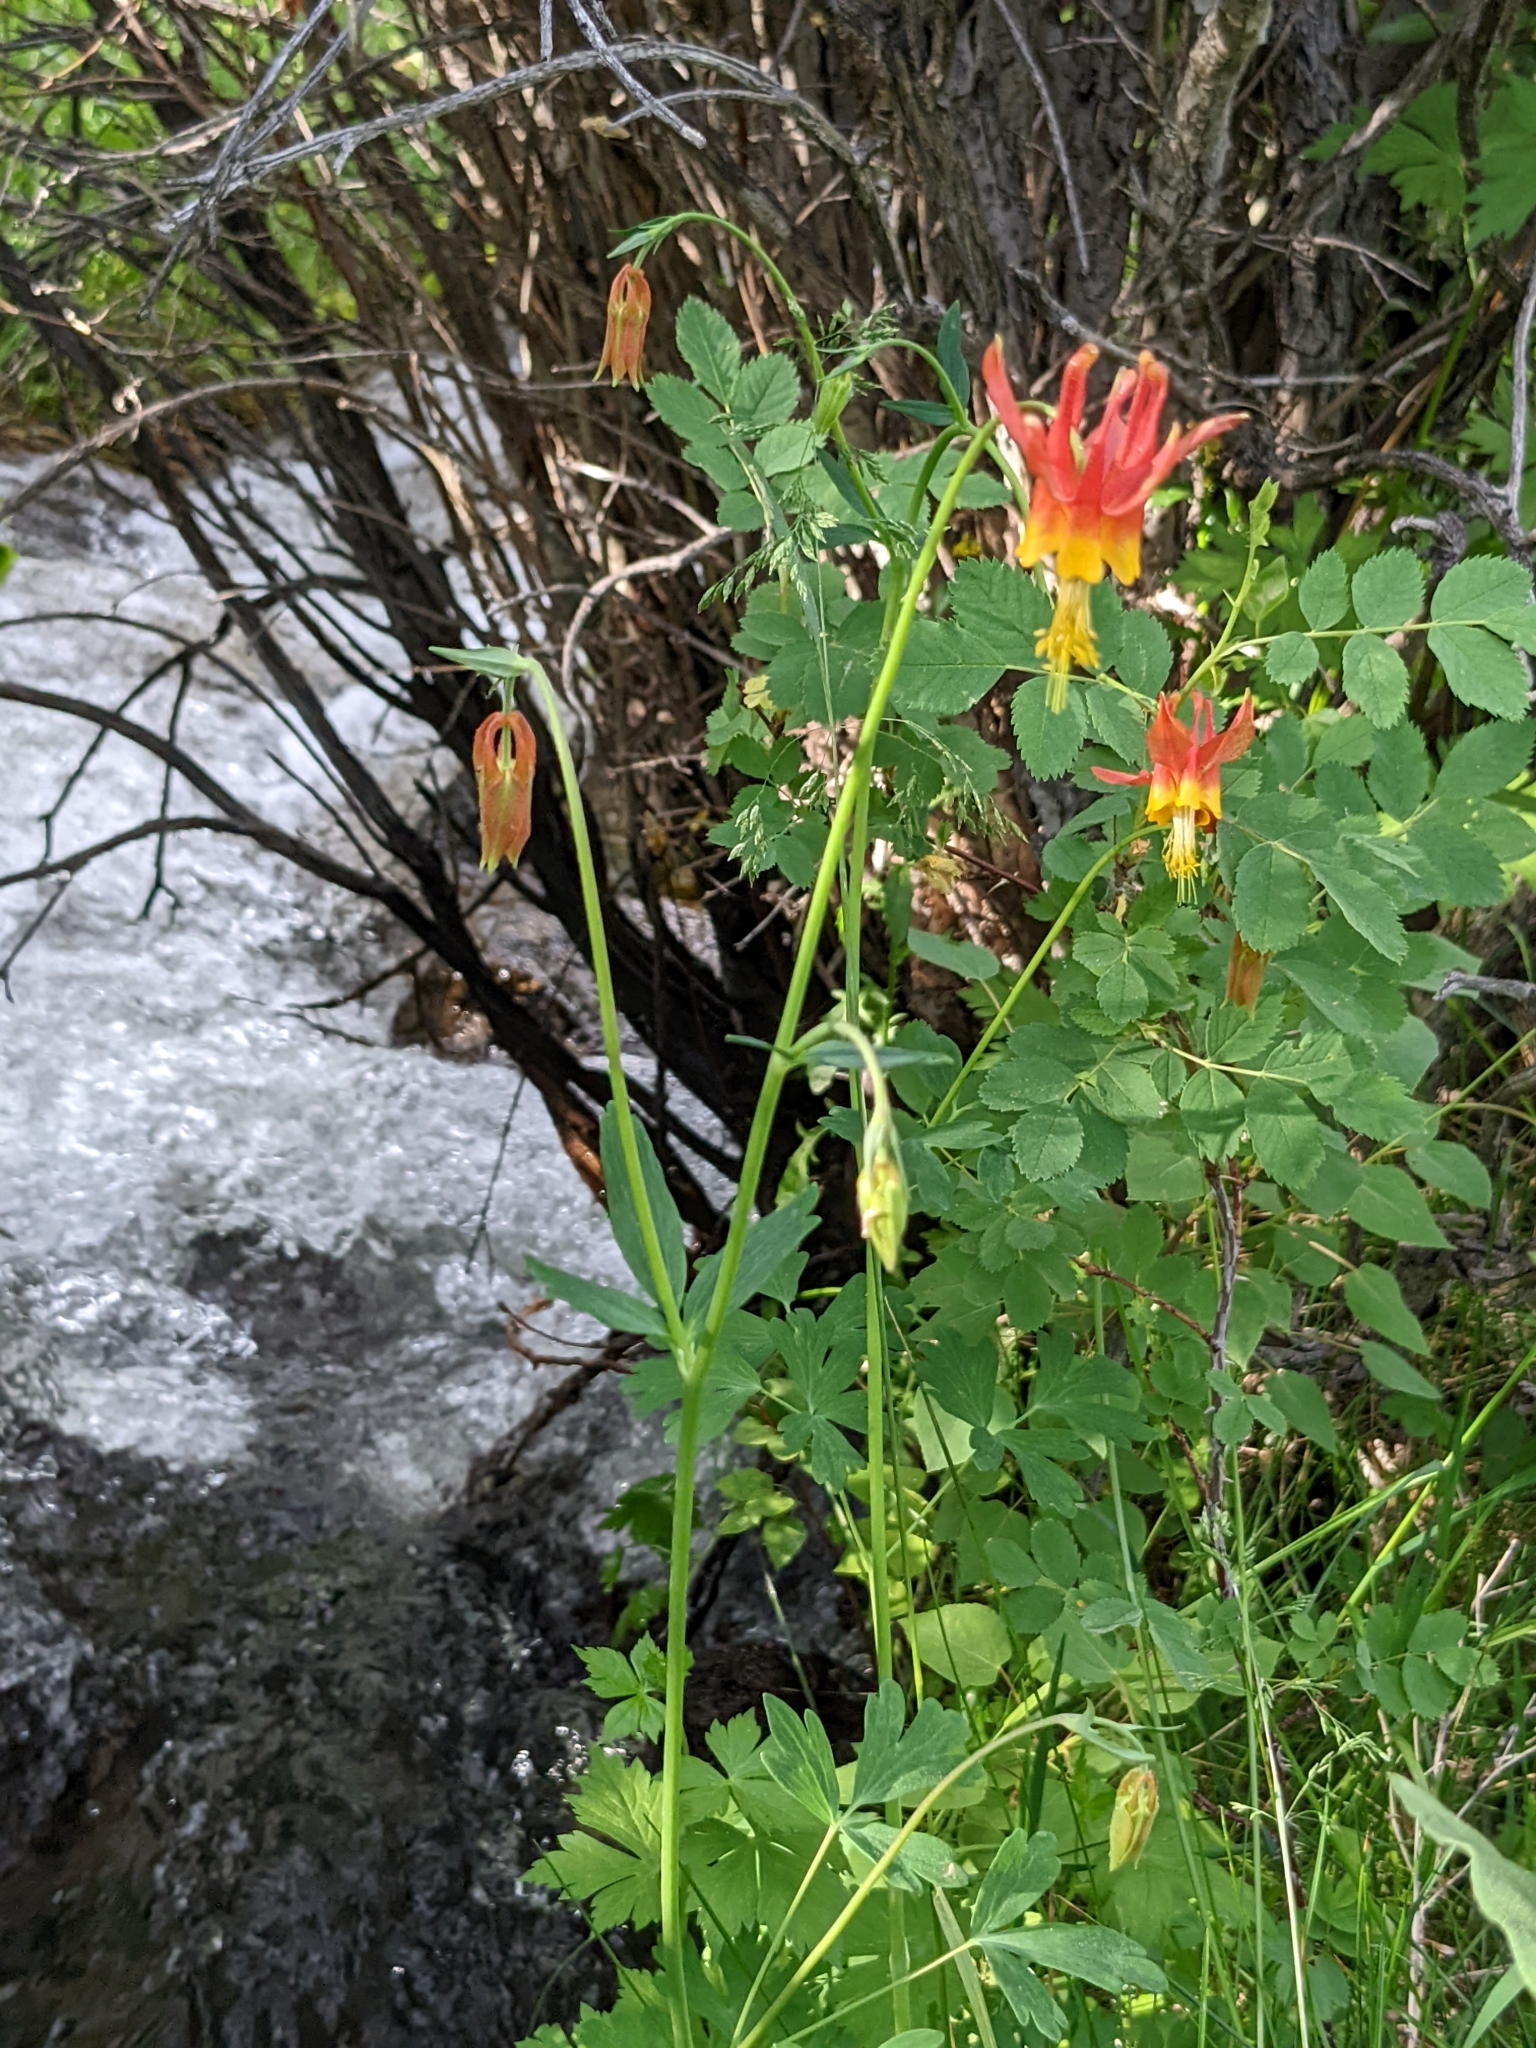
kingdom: Plantae
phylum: Tracheophyta
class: Magnoliopsida
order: Ranunculales
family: Ranunculaceae
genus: Aquilegia
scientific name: Aquilegia formosa
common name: Sitka columbine
